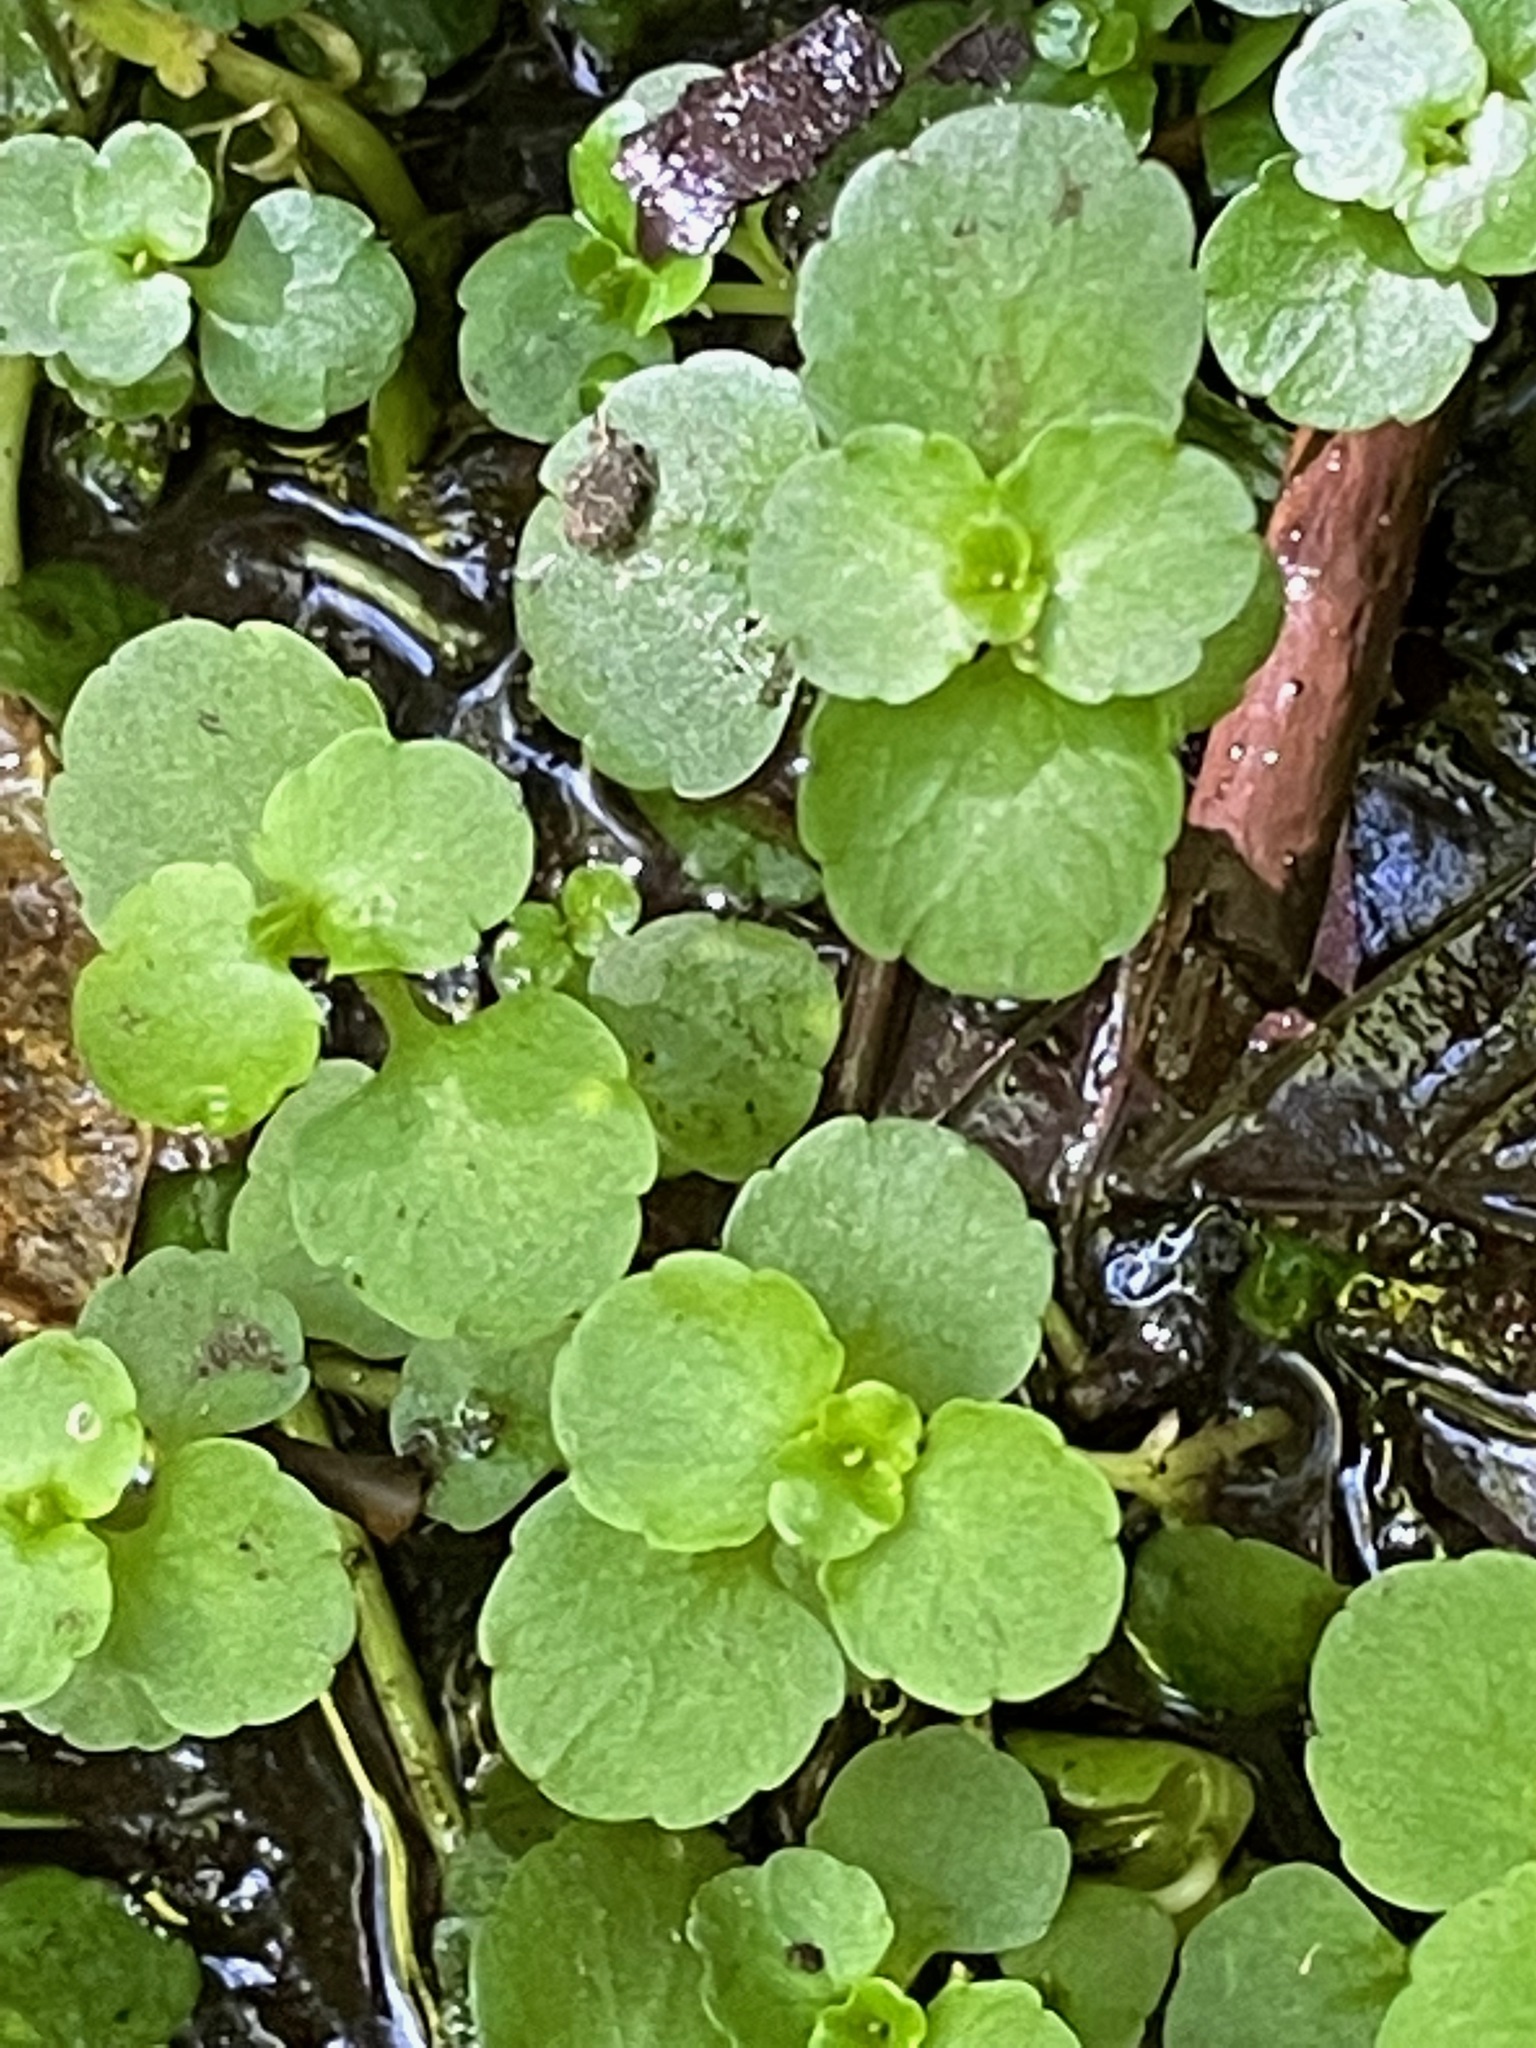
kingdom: Plantae
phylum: Tracheophyta
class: Magnoliopsida
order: Saxifragales
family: Saxifragaceae
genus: Chrysosplenium
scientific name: Chrysosplenium americanum
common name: American golden-saxifrage
